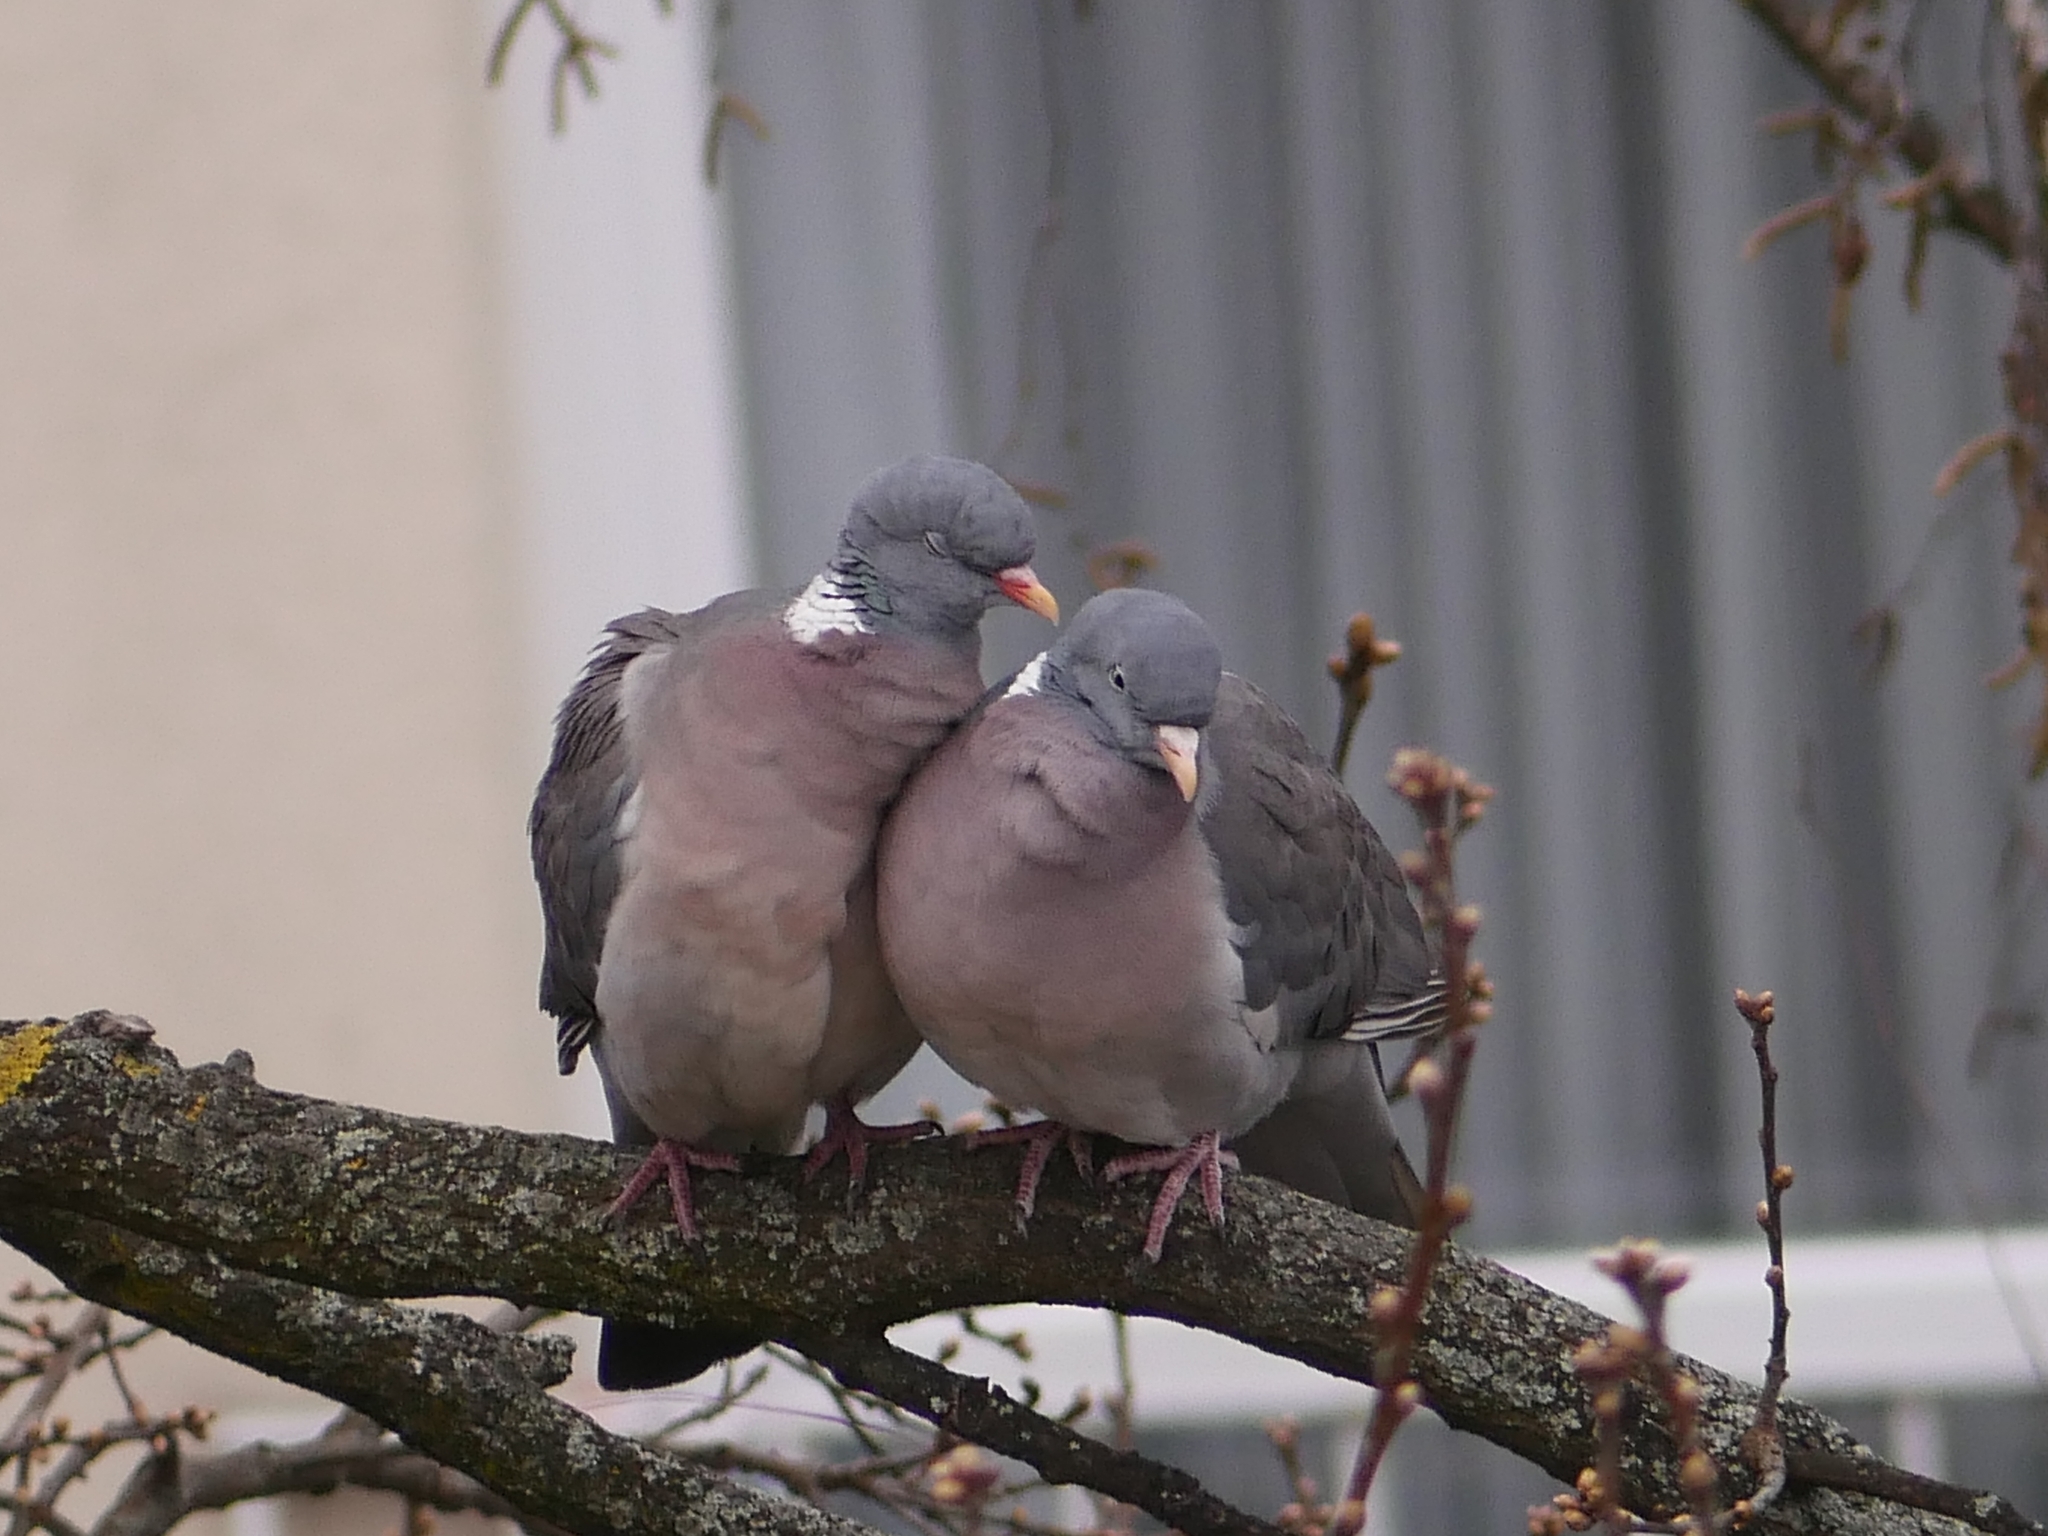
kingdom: Animalia
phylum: Chordata
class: Aves
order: Columbiformes
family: Columbidae
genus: Columba
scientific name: Columba palumbus
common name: Common wood pigeon
